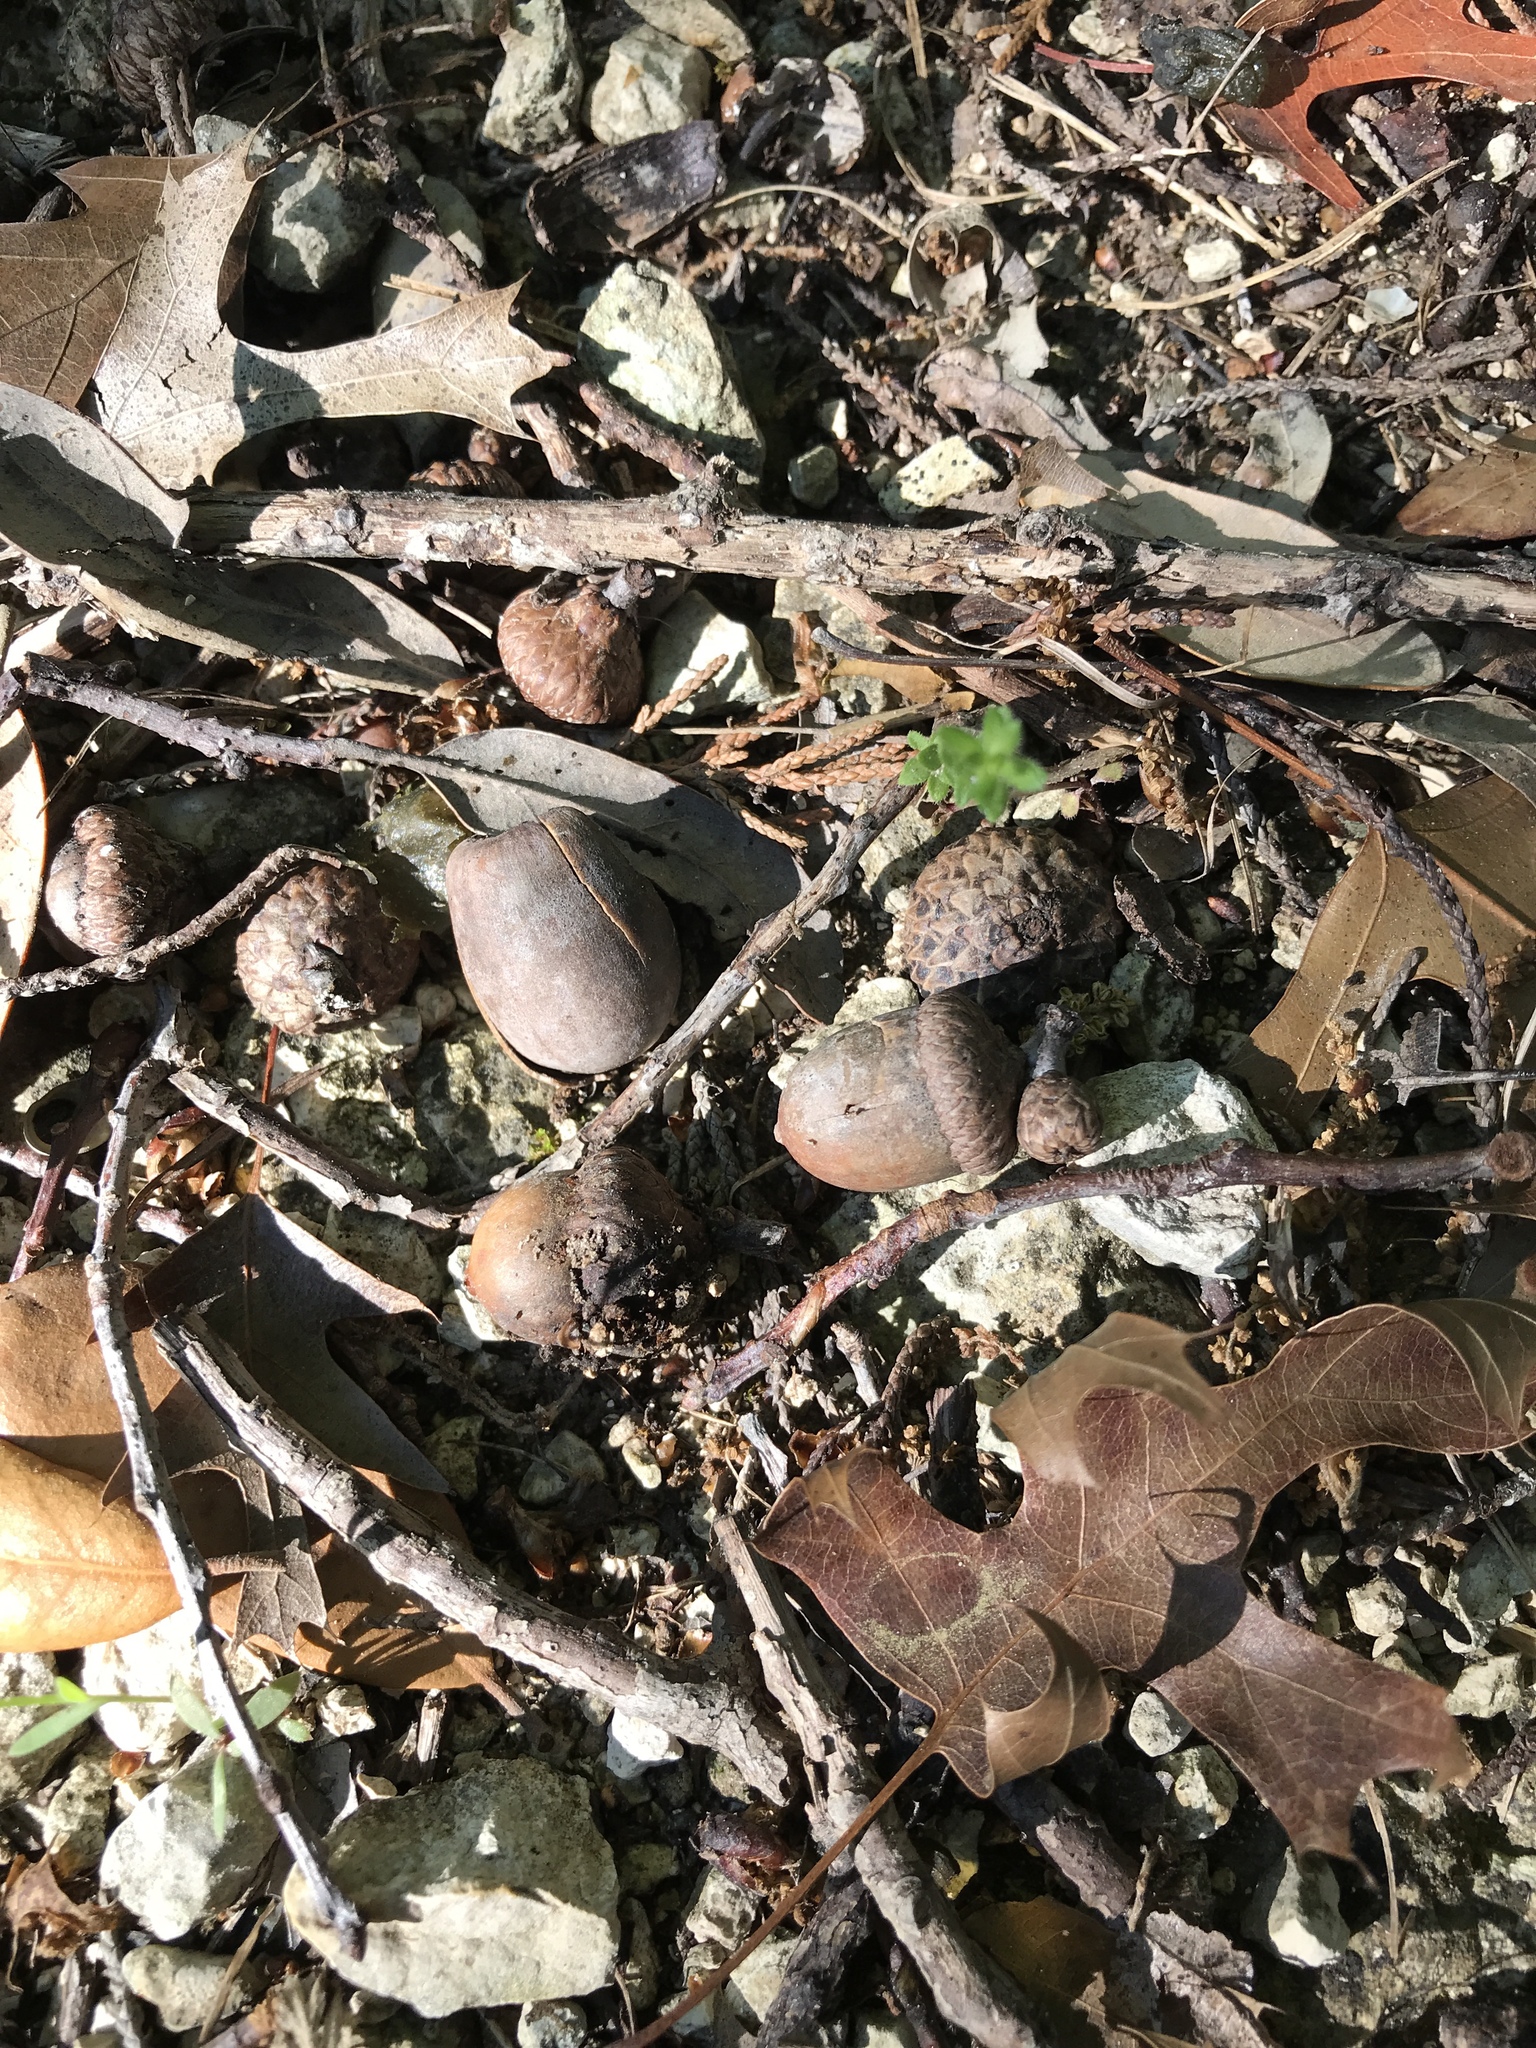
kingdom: Plantae
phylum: Tracheophyta
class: Magnoliopsida
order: Fagales
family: Fagaceae
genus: Quercus
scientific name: Quercus buckleyi
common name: Buckley oak
